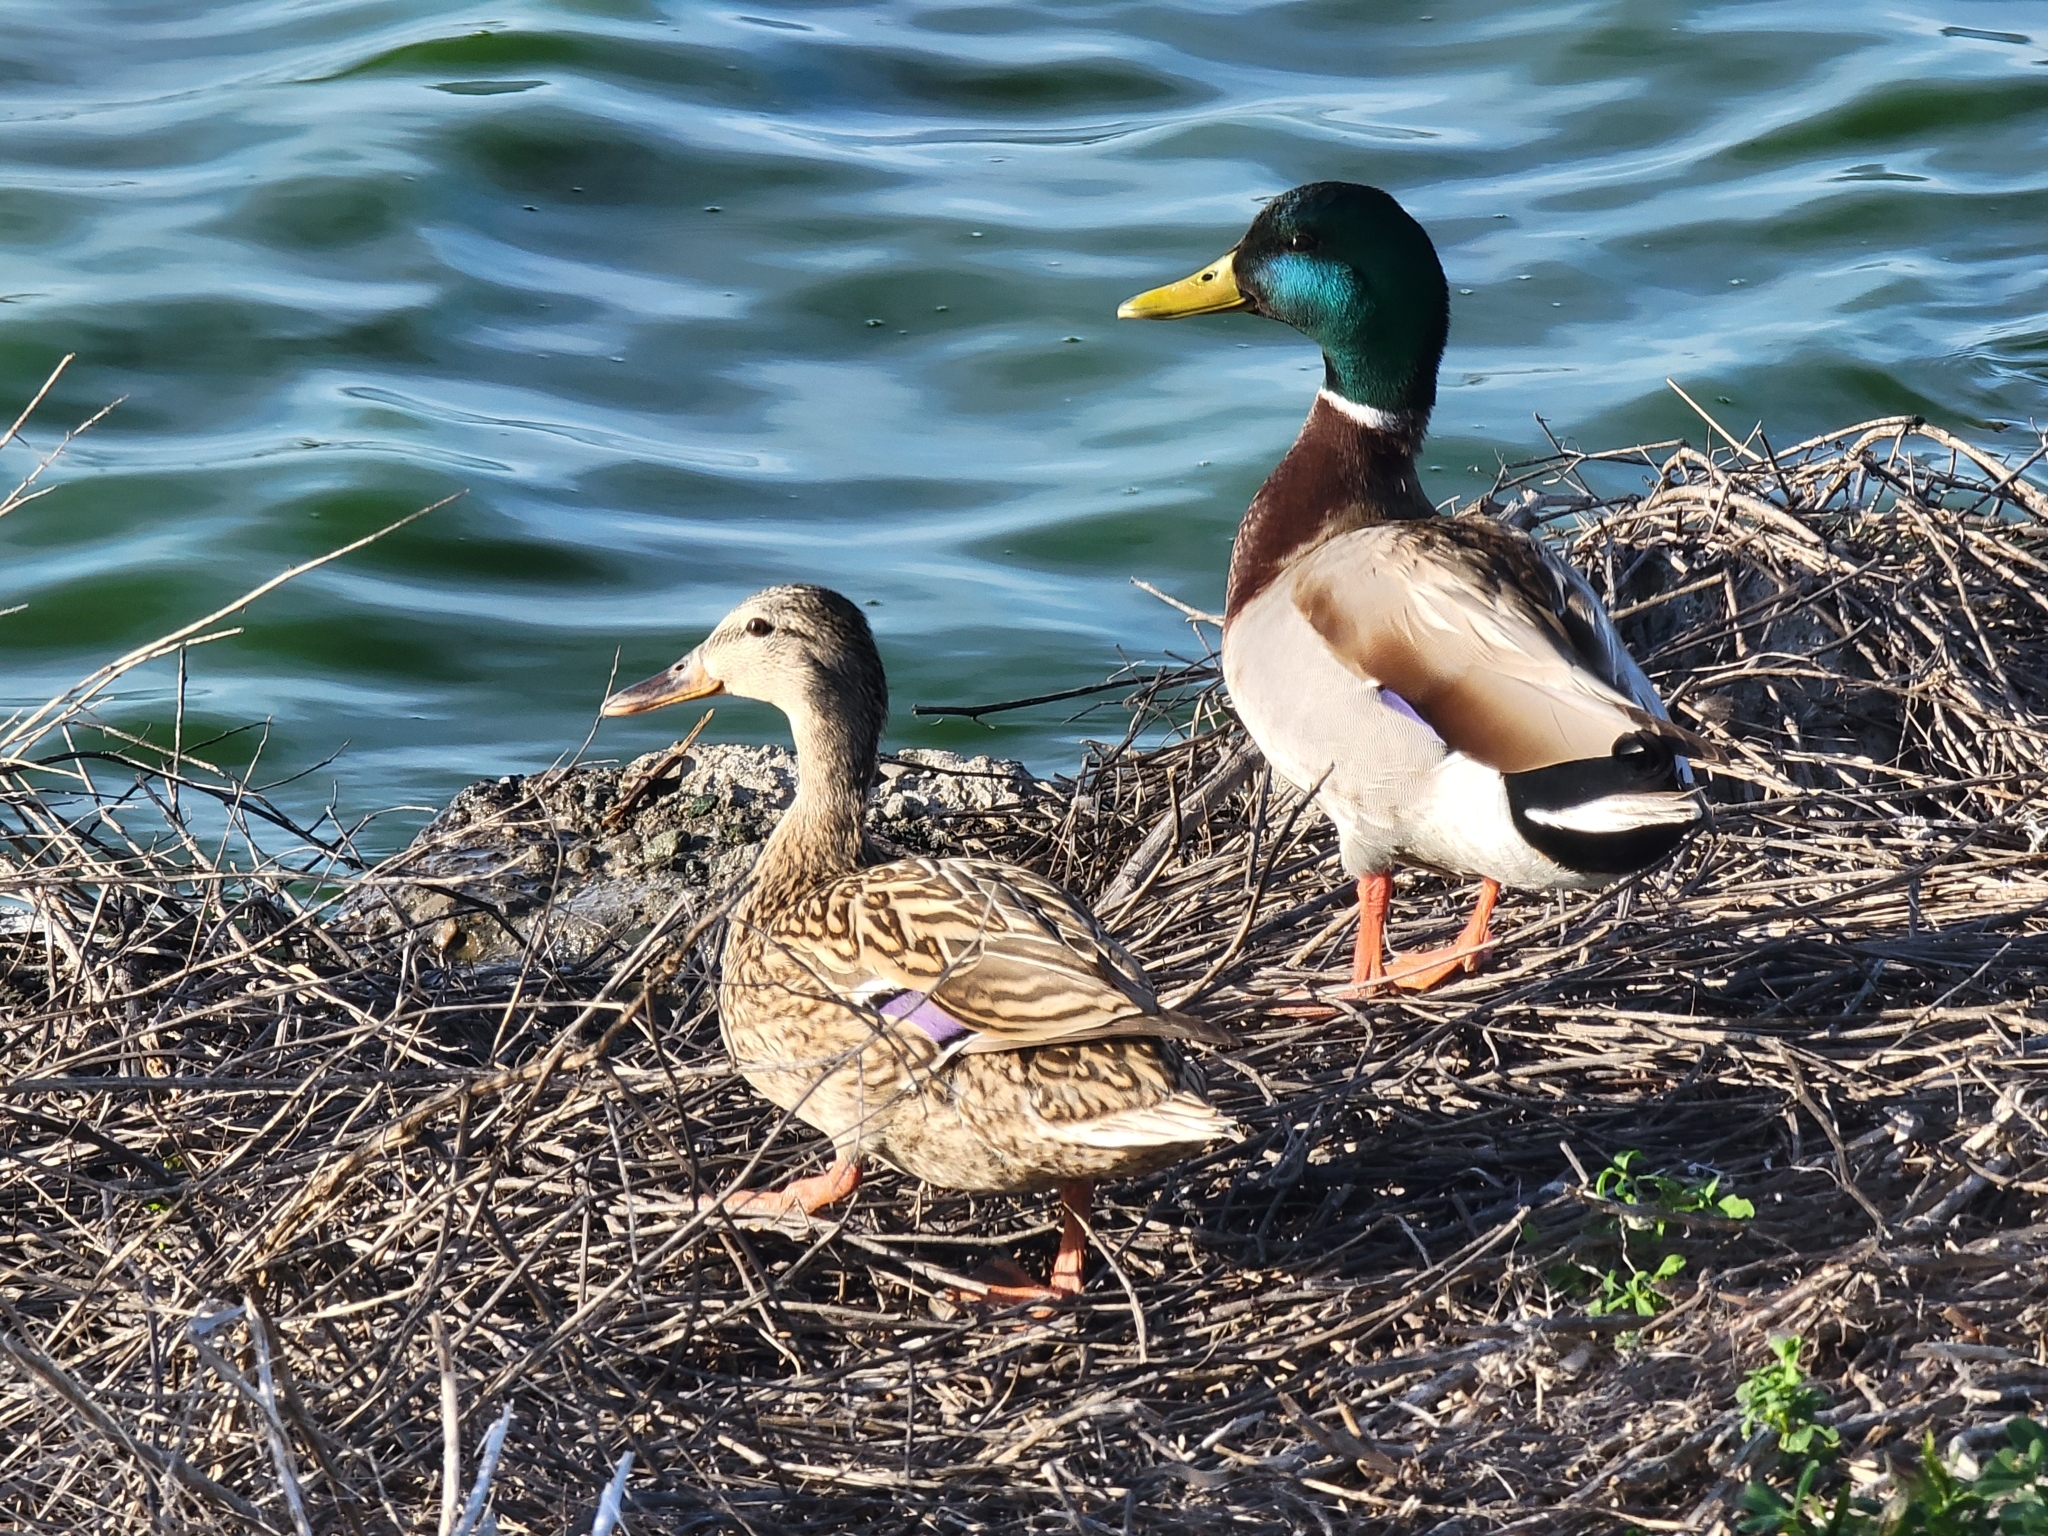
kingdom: Animalia
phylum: Chordata
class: Aves
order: Anseriformes
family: Anatidae
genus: Anas
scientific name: Anas platyrhynchos
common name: Mallard
